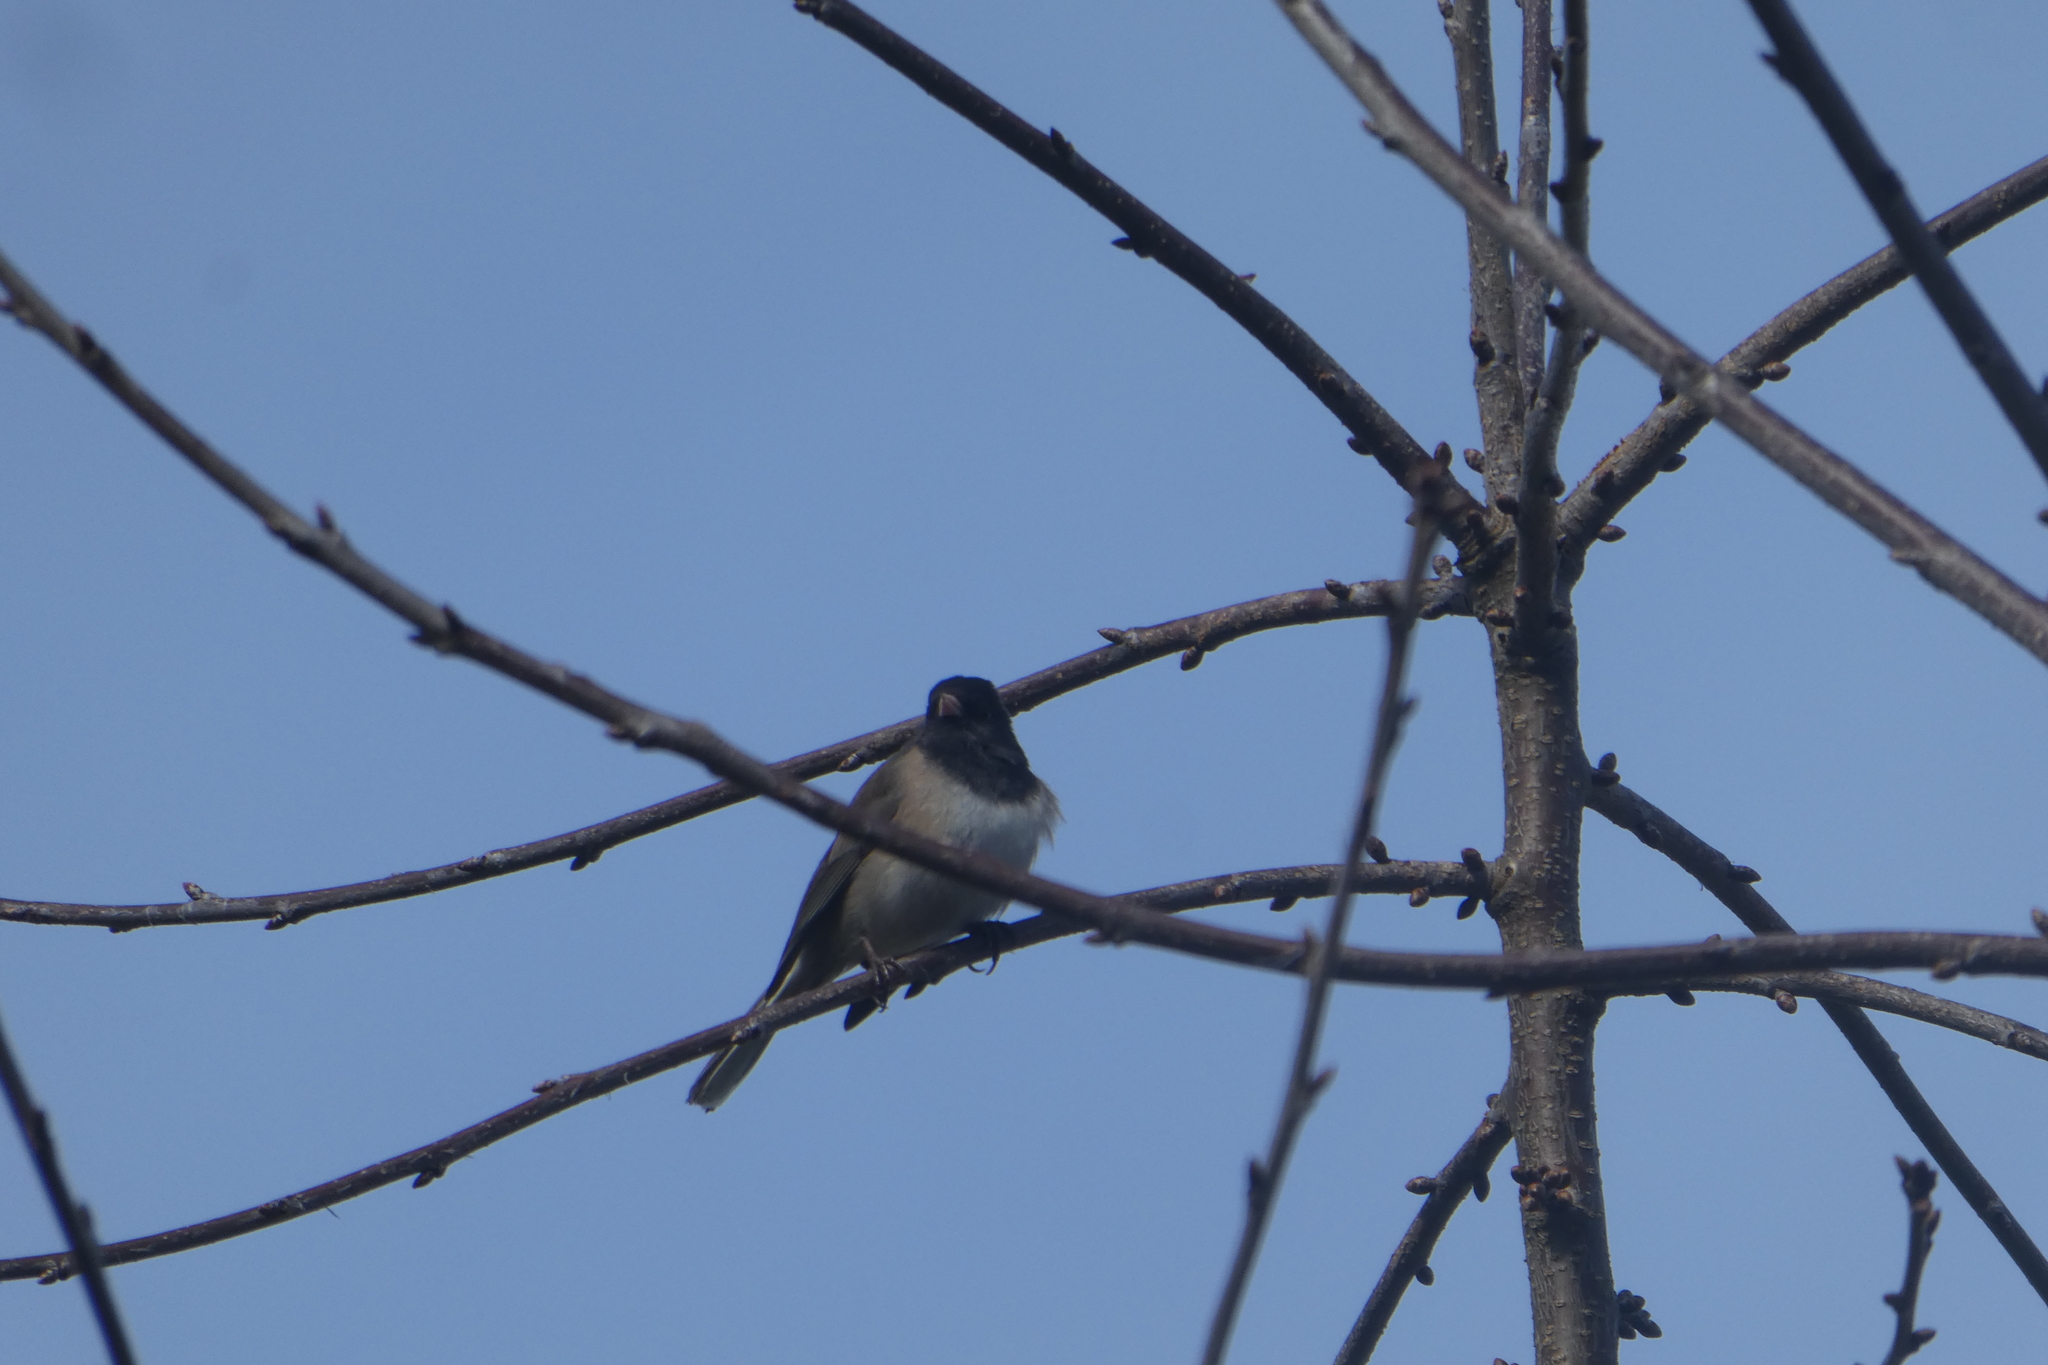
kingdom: Animalia
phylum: Chordata
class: Aves
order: Passeriformes
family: Passerellidae
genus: Junco
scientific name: Junco hyemalis
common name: Dark-eyed junco
